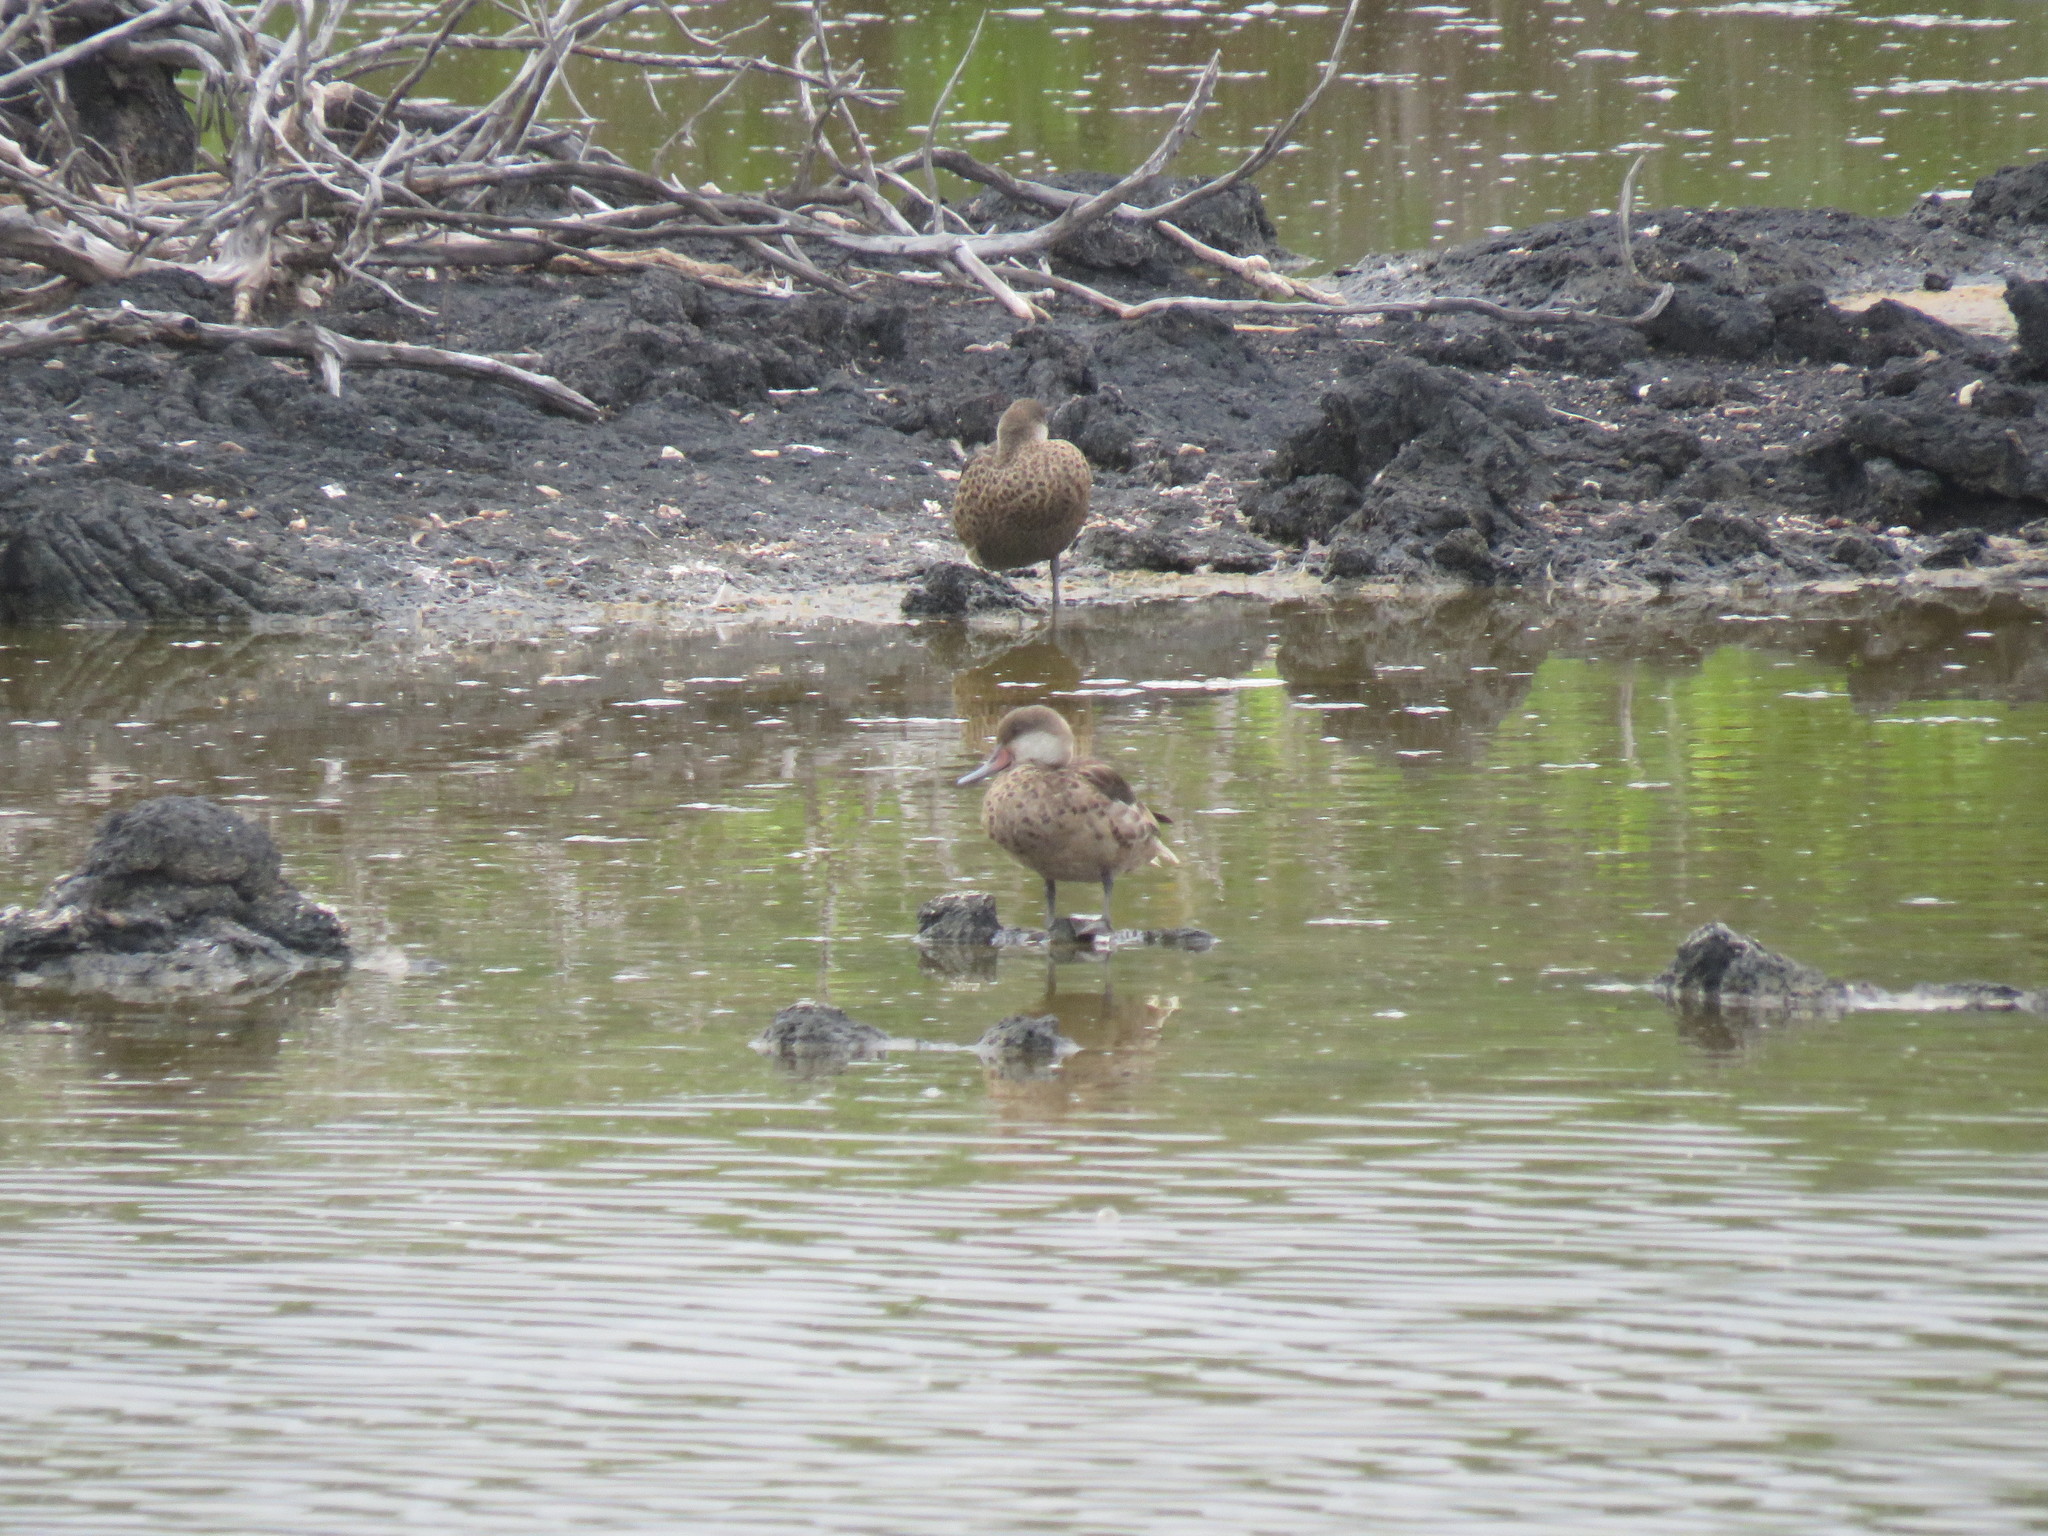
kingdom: Animalia
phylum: Chordata
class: Aves
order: Anseriformes
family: Anatidae
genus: Anas
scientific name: Anas bahamensis
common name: White-cheeked pintail
